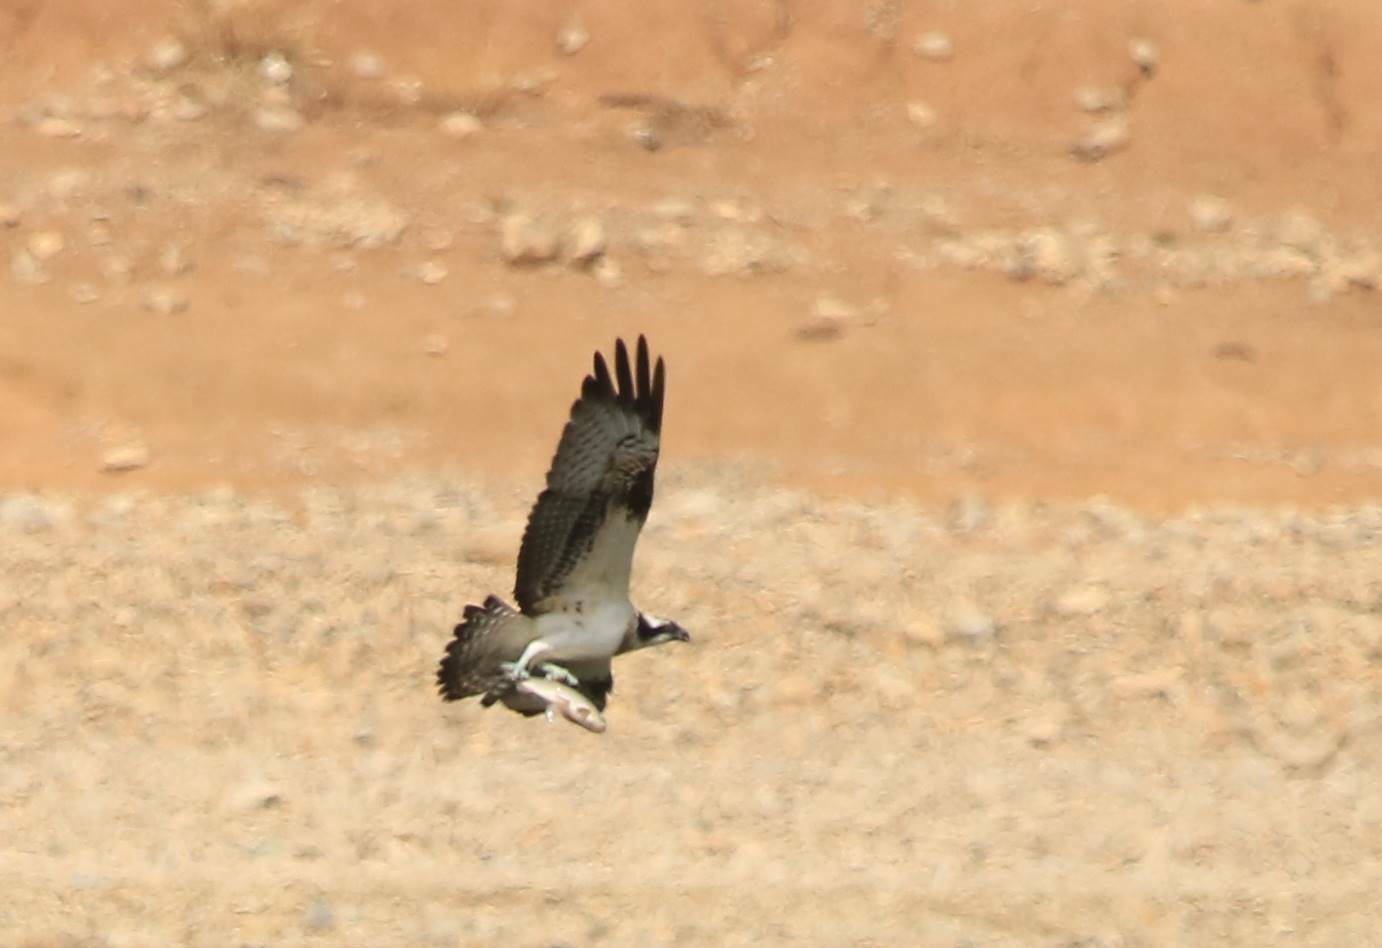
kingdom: Animalia
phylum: Chordata
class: Aves
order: Accipitriformes
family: Pandionidae
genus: Pandion
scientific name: Pandion haliaetus
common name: Osprey
